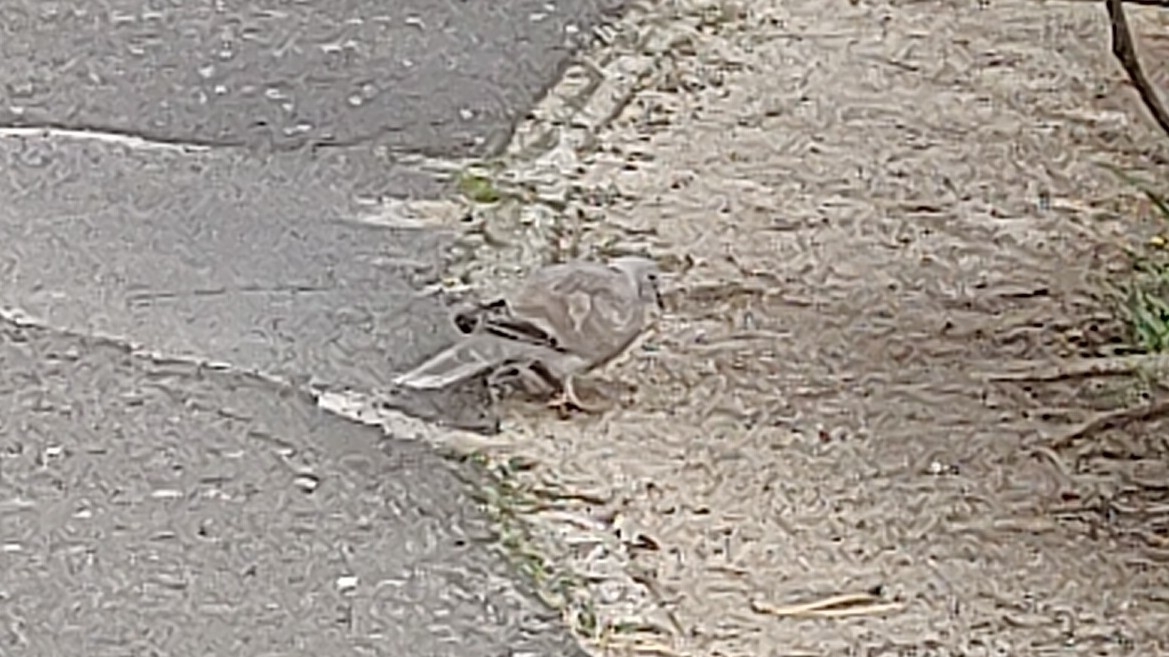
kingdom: Animalia
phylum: Chordata
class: Aves
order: Columbiformes
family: Columbidae
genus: Streptopelia
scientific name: Streptopelia decaocto
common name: Eurasian collared dove
